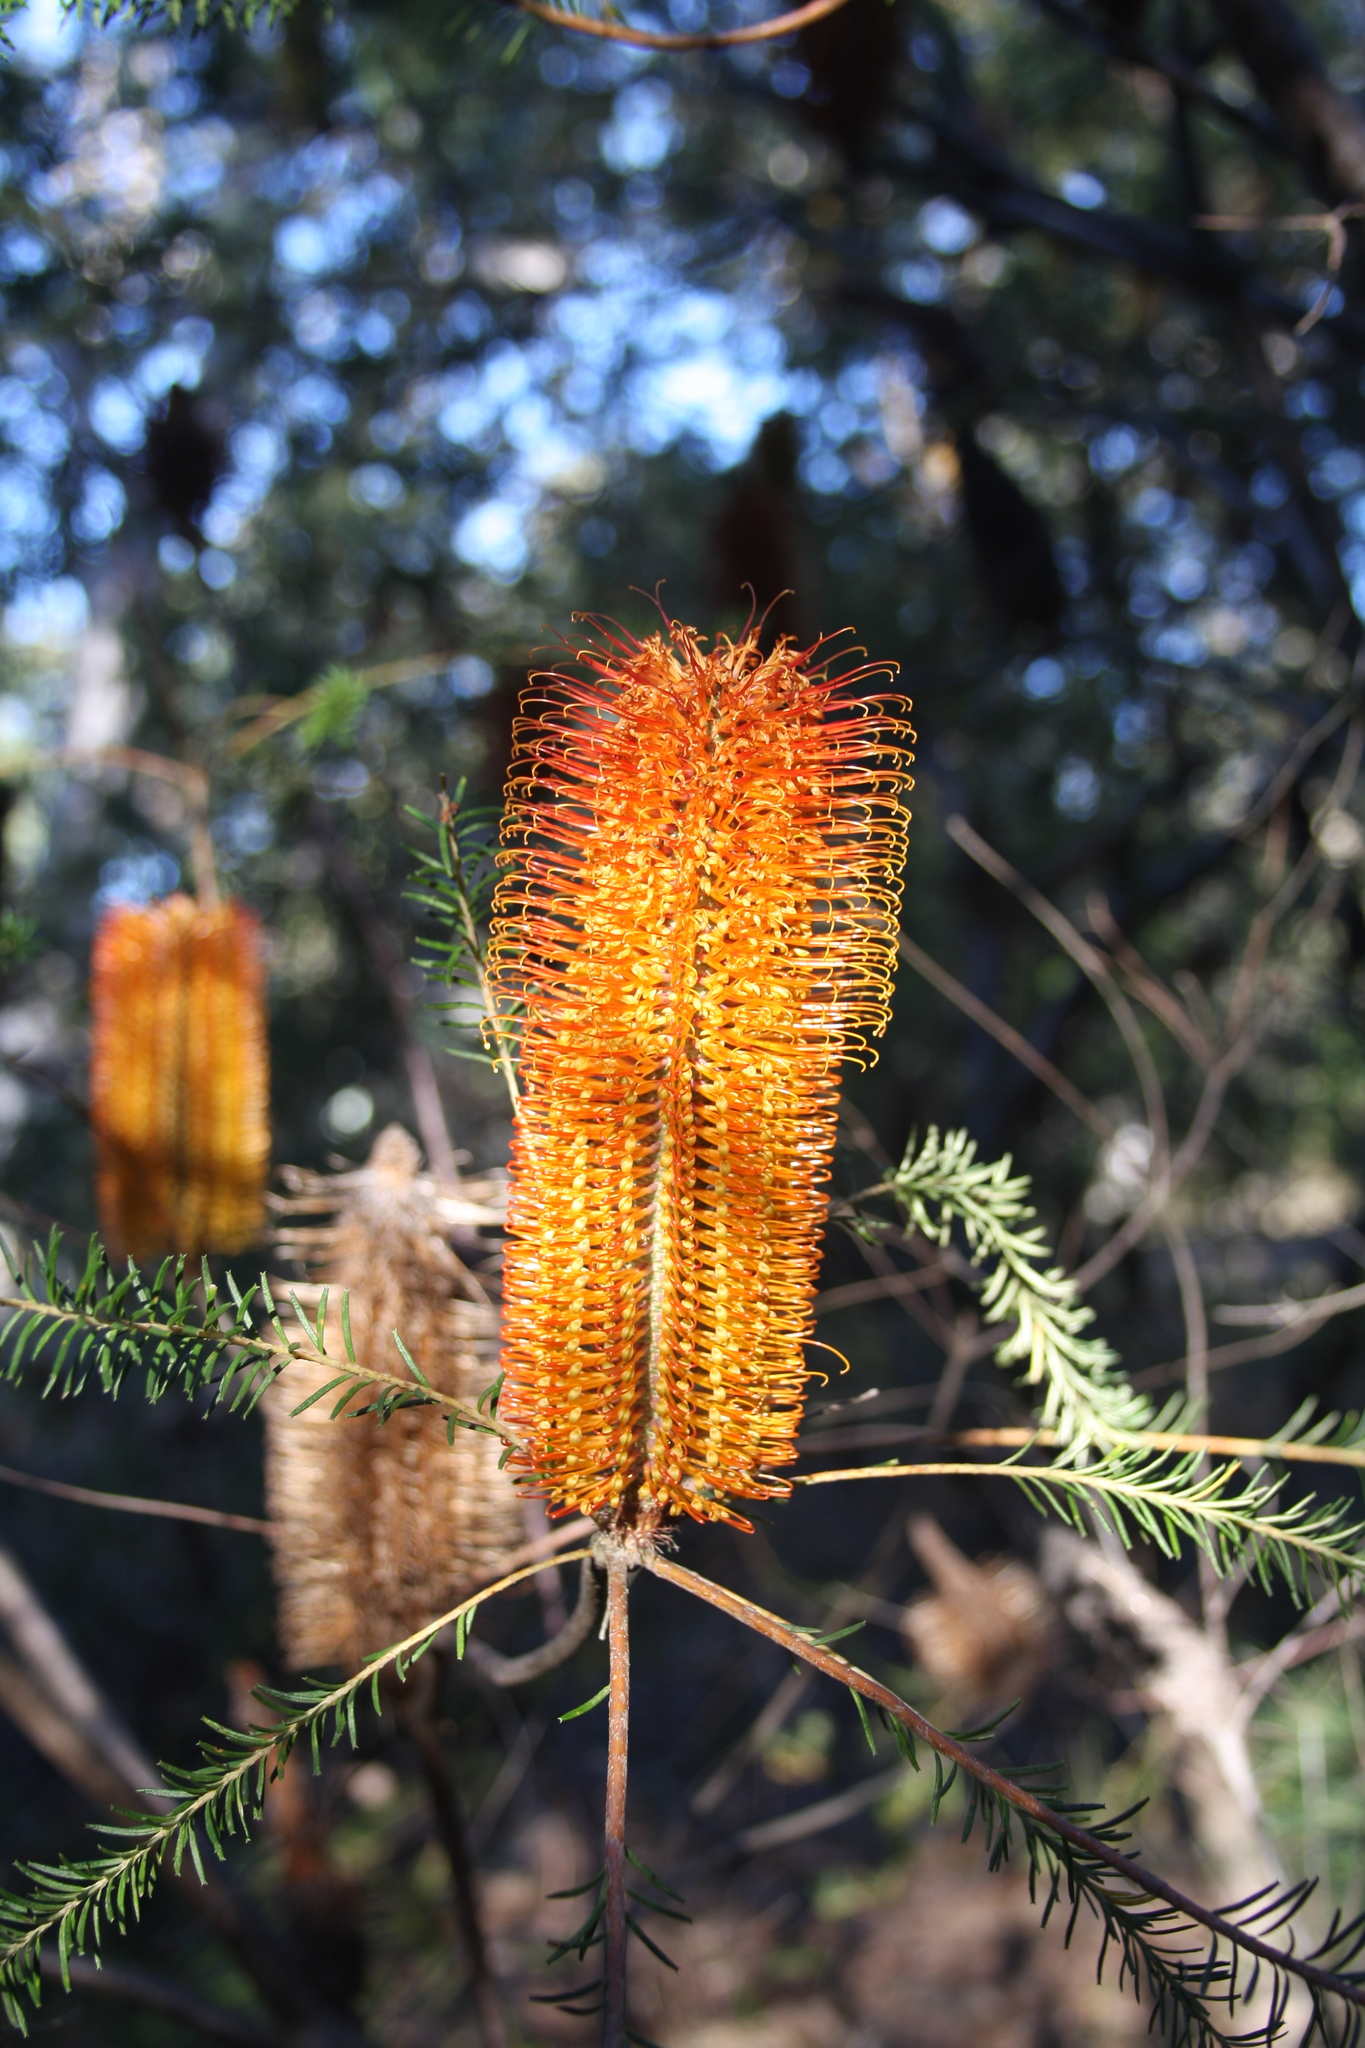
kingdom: Plantae
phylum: Tracheophyta
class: Magnoliopsida
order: Proteales
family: Proteaceae
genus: Banksia
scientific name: Banksia ericifolia
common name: Heath-leaf banksia
